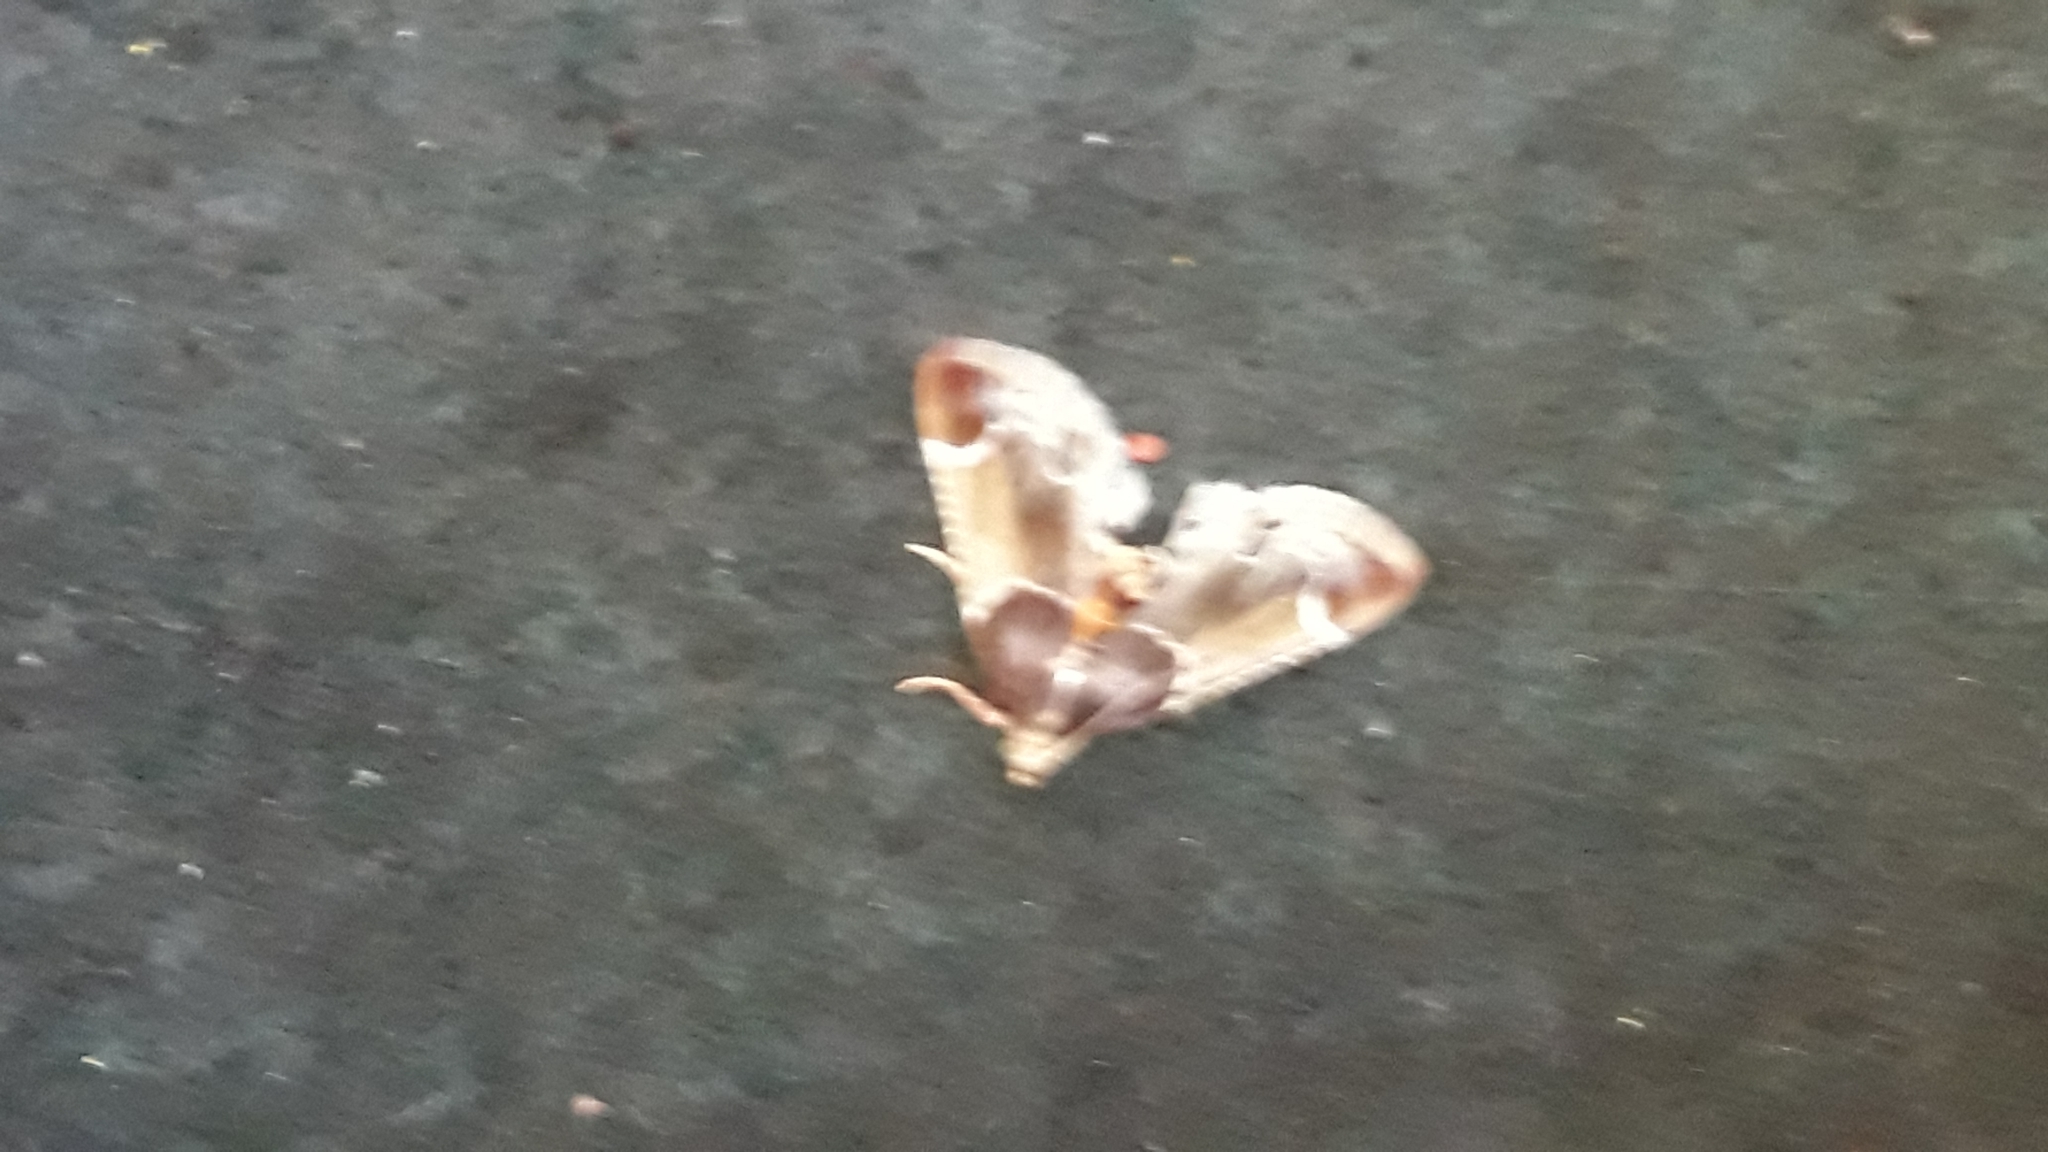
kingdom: Animalia
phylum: Arthropoda
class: Insecta
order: Lepidoptera
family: Pyralidae
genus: Pyralis
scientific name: Pyralis farinalis
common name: Meal moth
